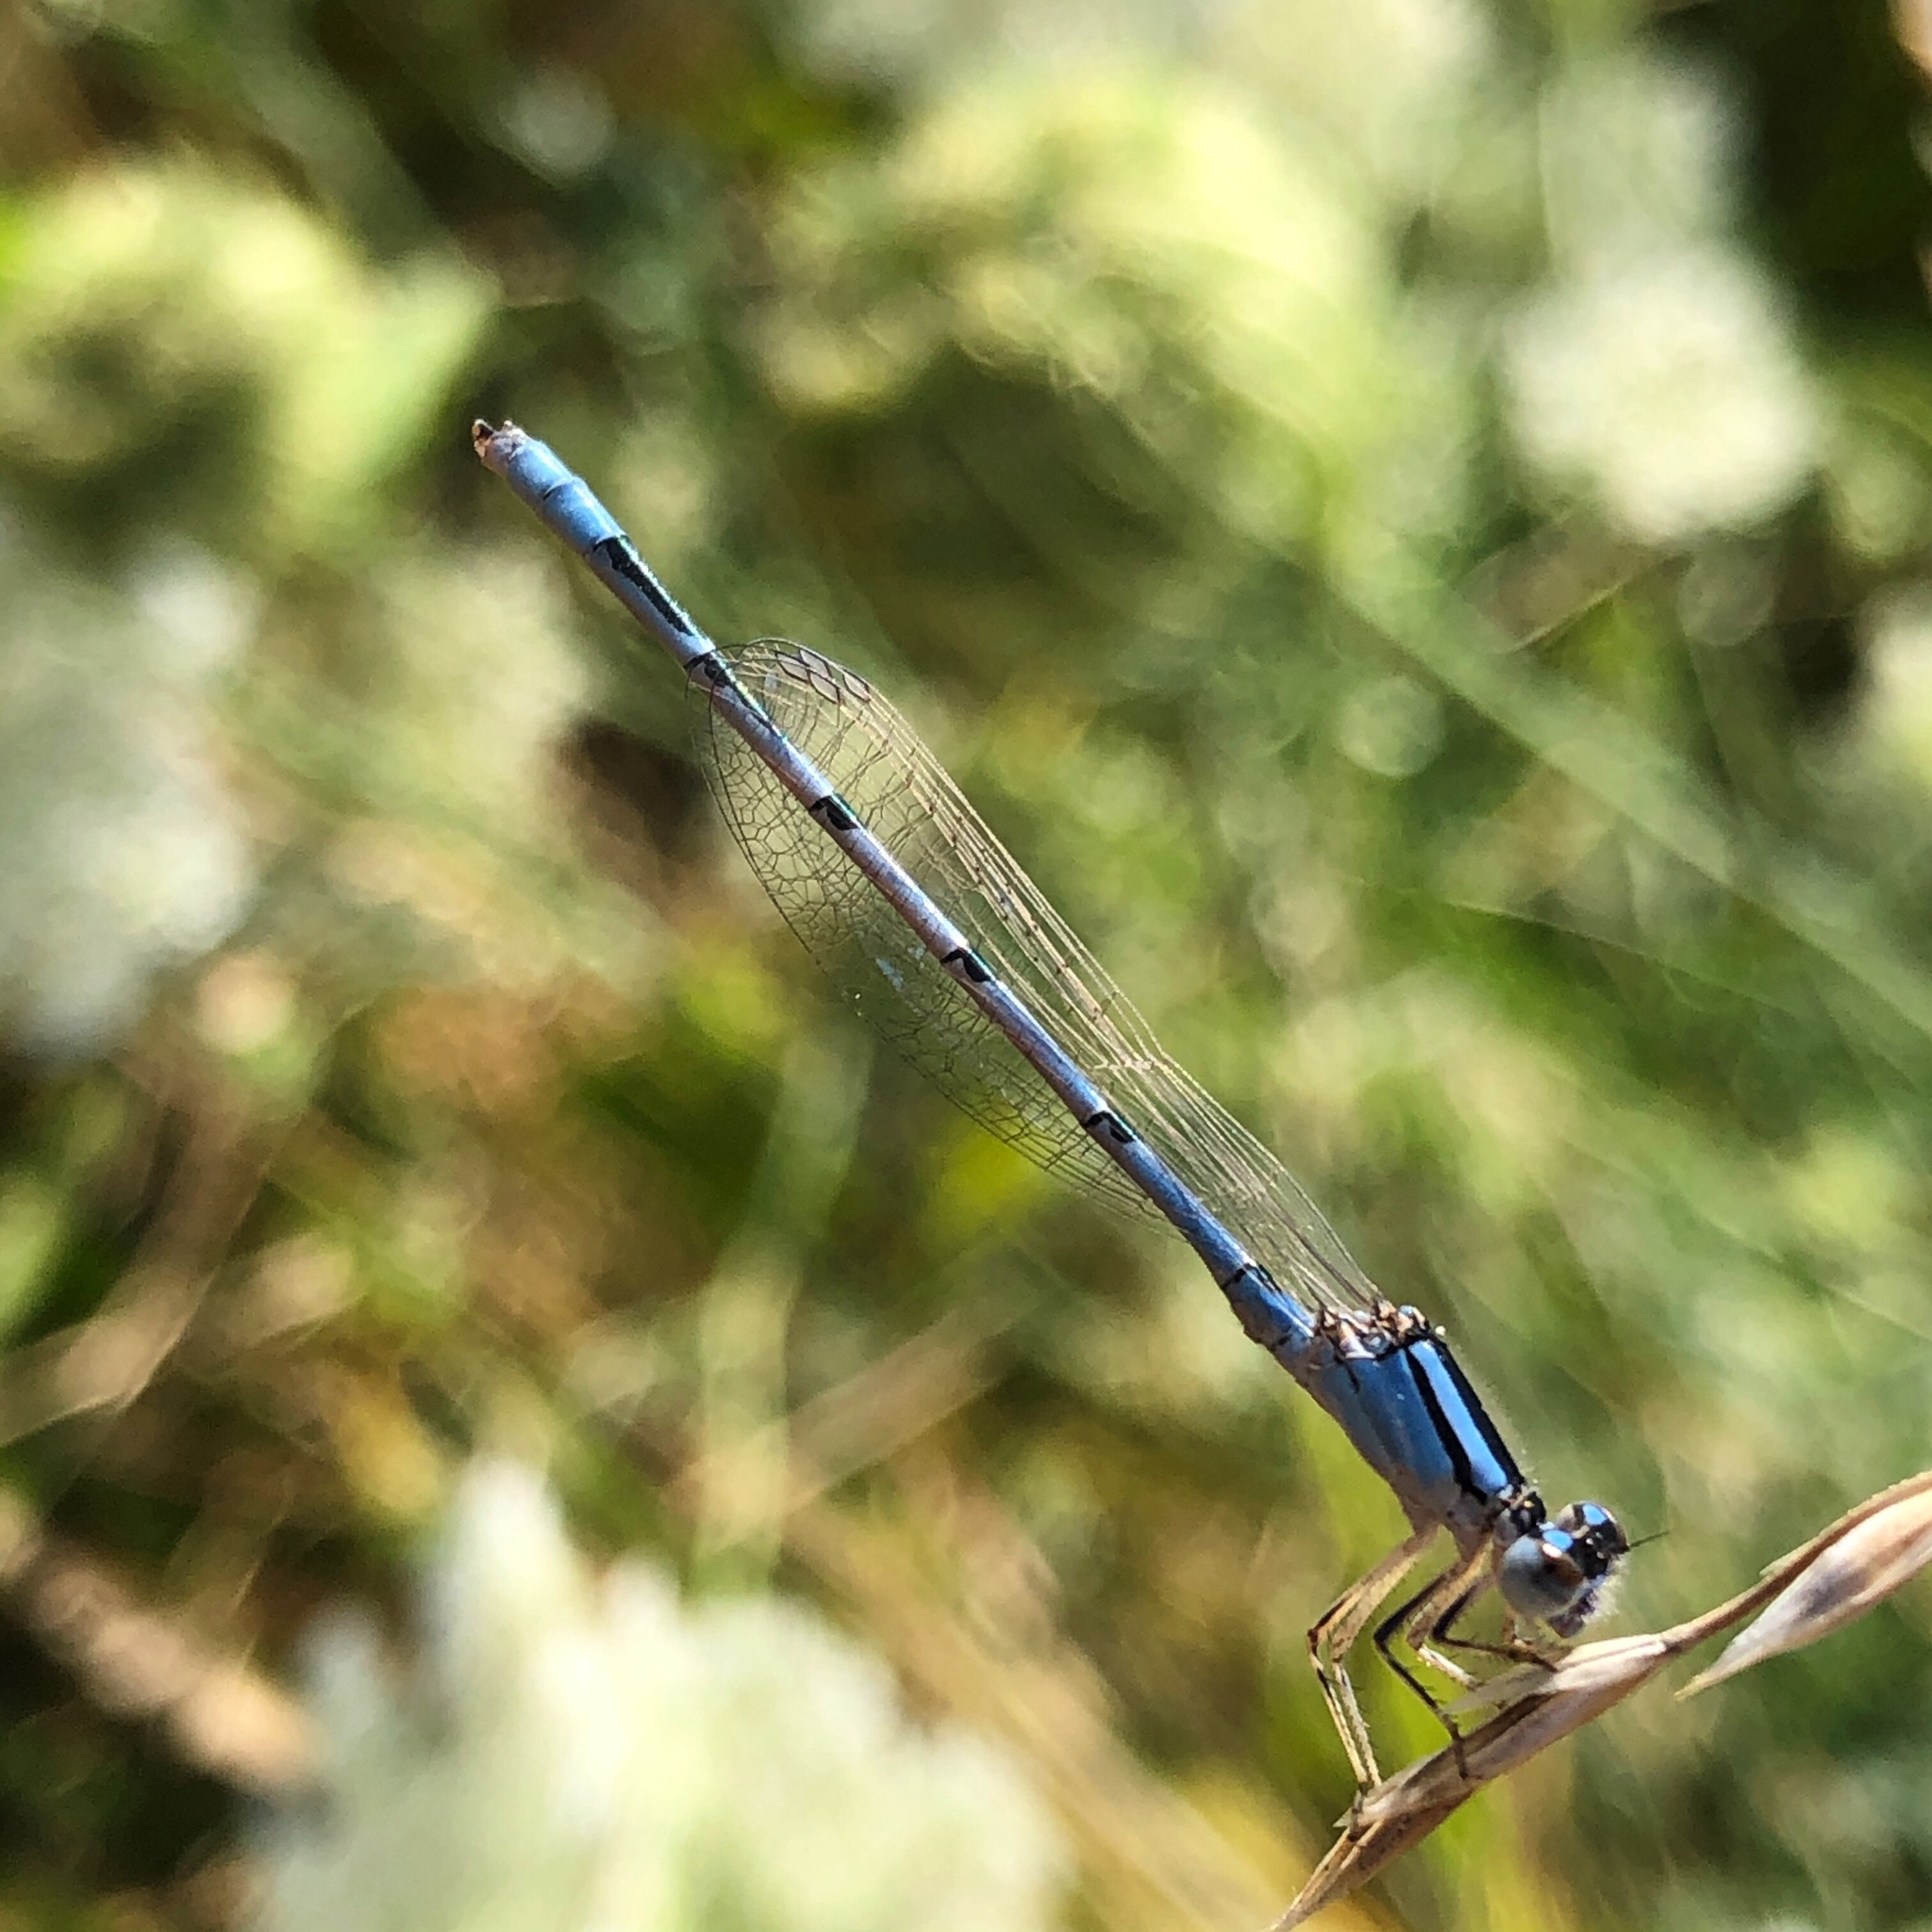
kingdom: Animalia
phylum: Arthropoda
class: Insecta
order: Odonata
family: Coenagrionidae
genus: Enallagma
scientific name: Enallagma civile
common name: Damselfly
